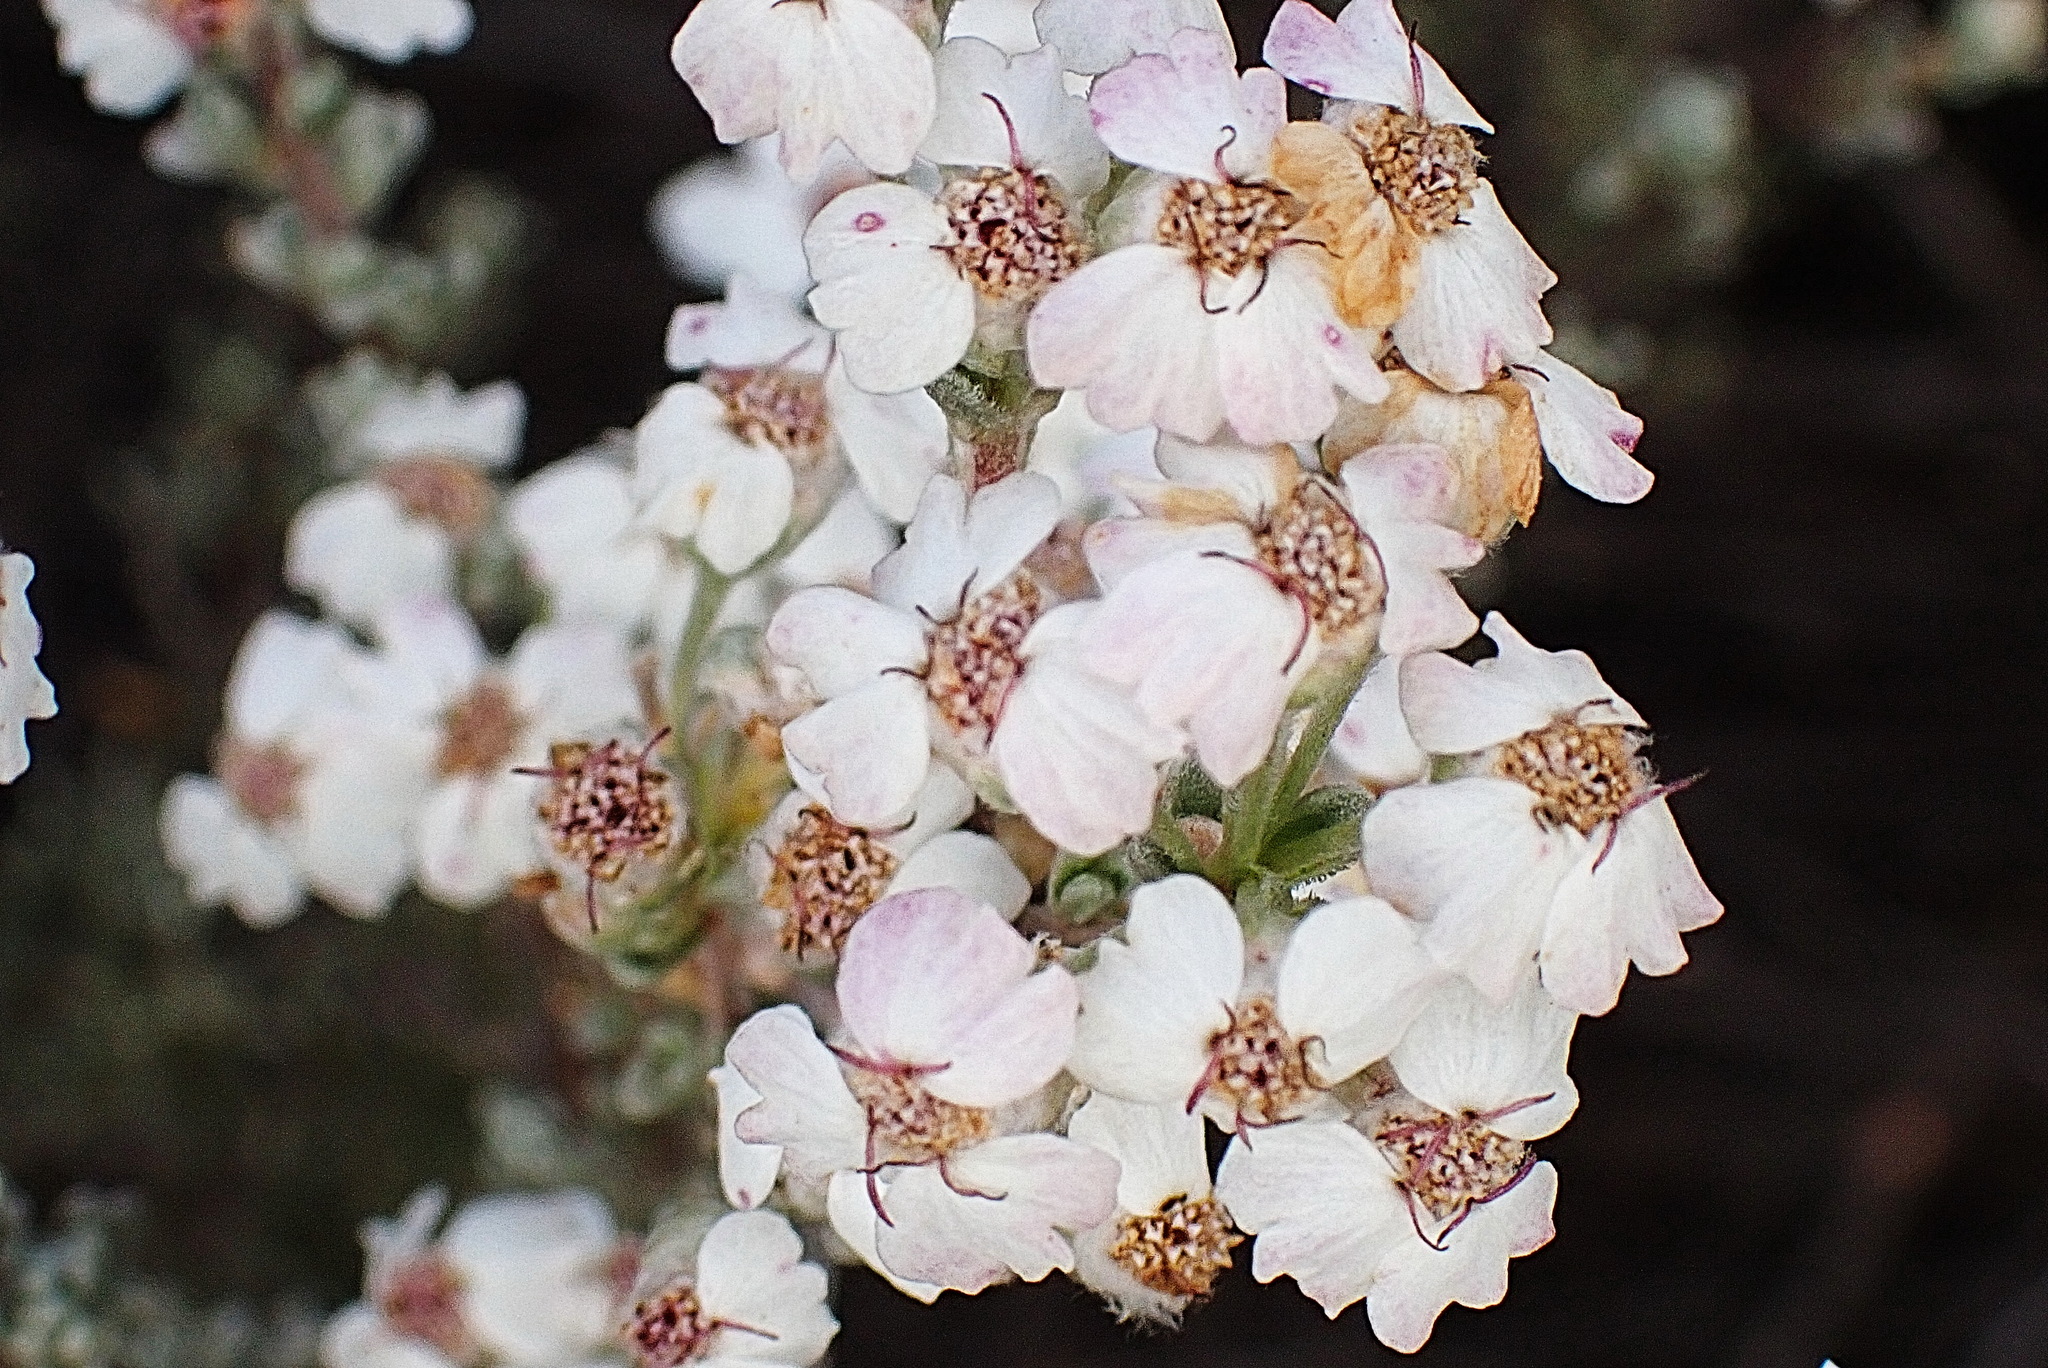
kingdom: Plantae
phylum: Tracheophyta
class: Magnoliopsida
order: Asterales
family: Asteraceae
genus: Eriocephalus
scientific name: Eriocephalus africanus
